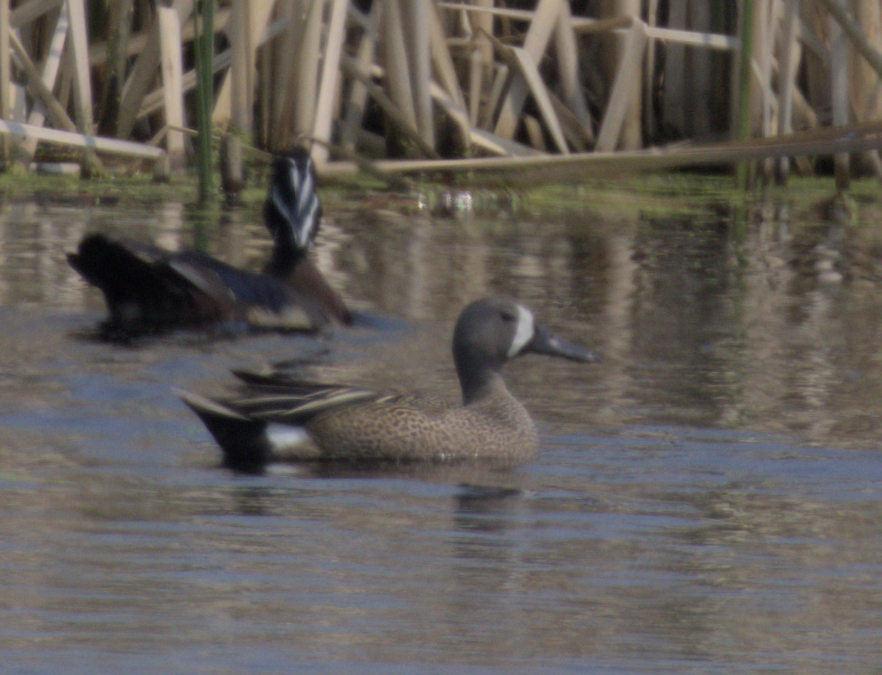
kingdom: Animalia
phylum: Chordata
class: Aves
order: Anseriformes
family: Anatidae
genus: Spatula
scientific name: Spatula discors
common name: Blue-winged teal
